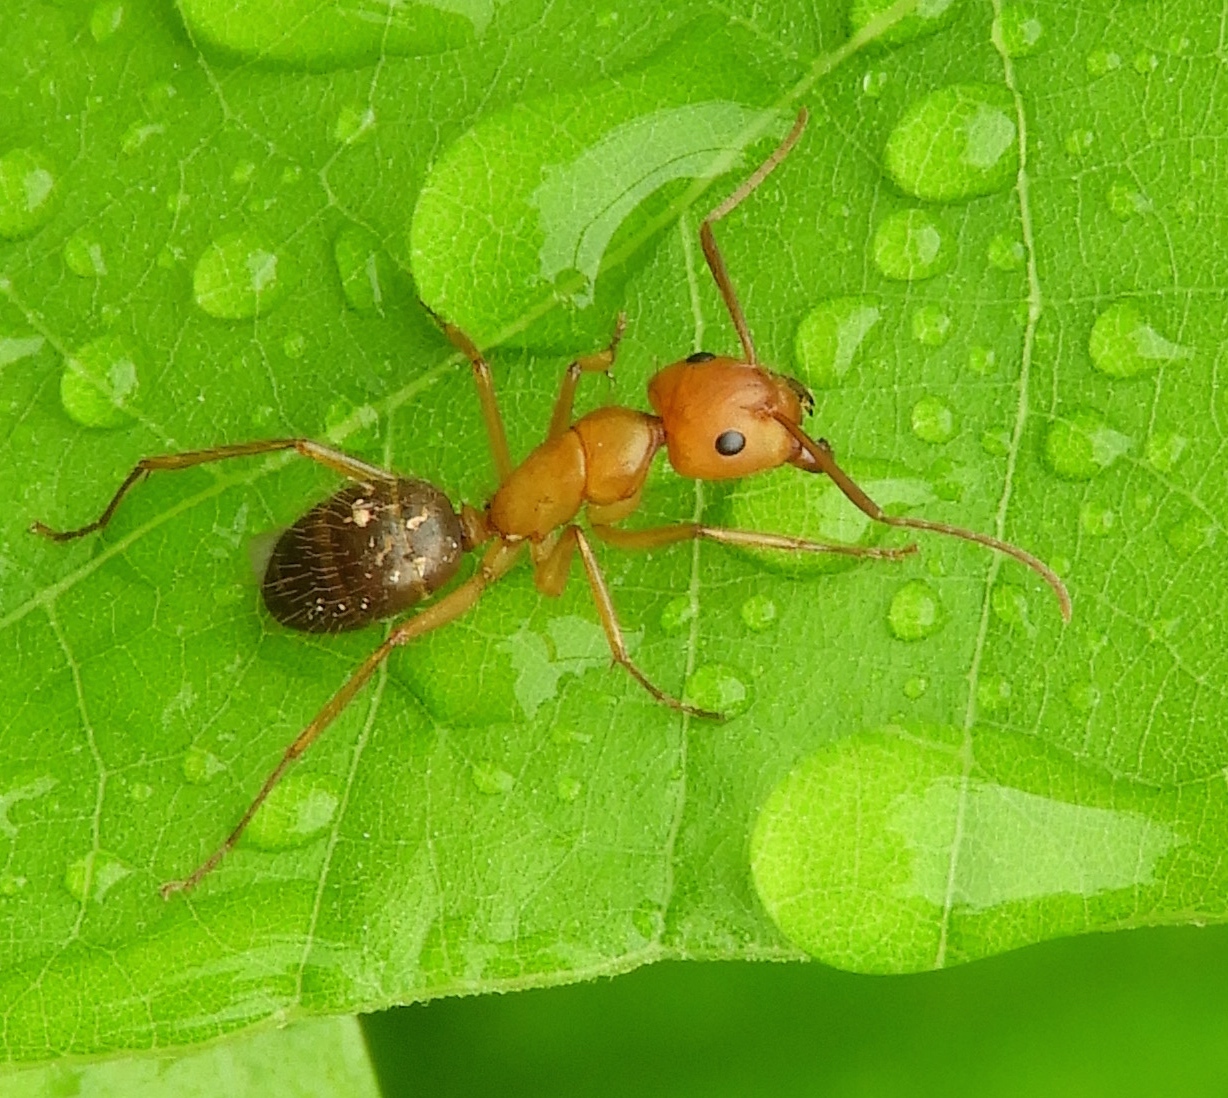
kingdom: Animalia
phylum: Arthropoda
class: Insecta
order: Hymenoptera
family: Formicidae
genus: Camponotus
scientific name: Camponotus
